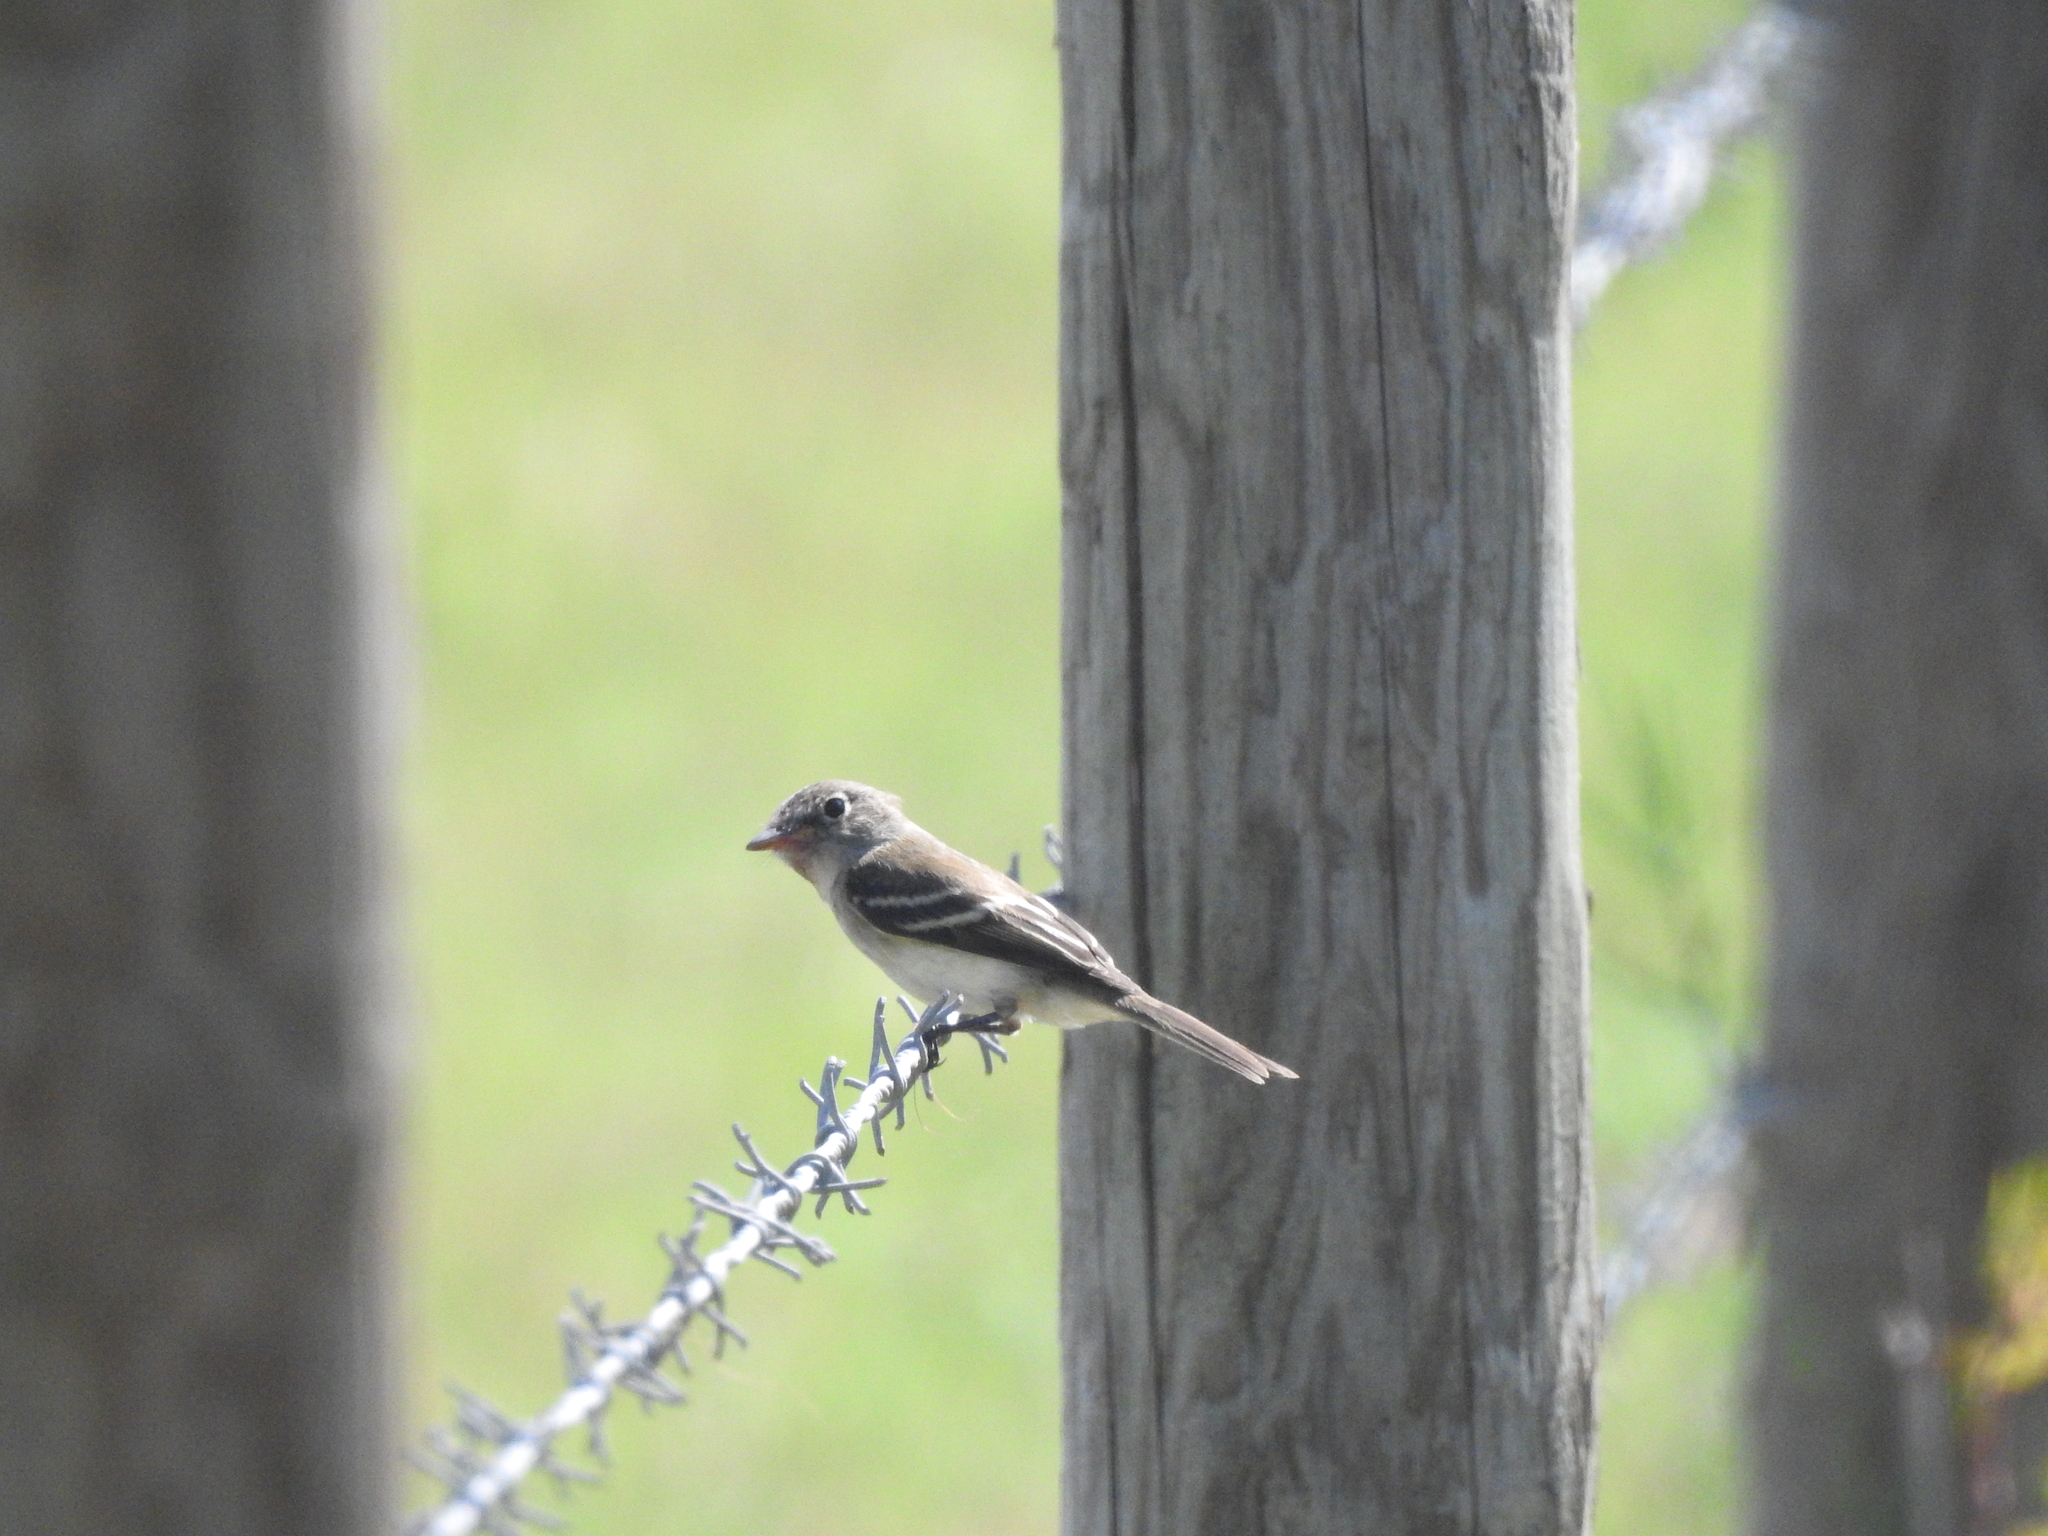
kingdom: Animalia
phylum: Chordata
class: Aves
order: Passeriformes
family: Tyrannidae
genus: Empidonax
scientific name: Empidonax minimus
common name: Least flycatcher
